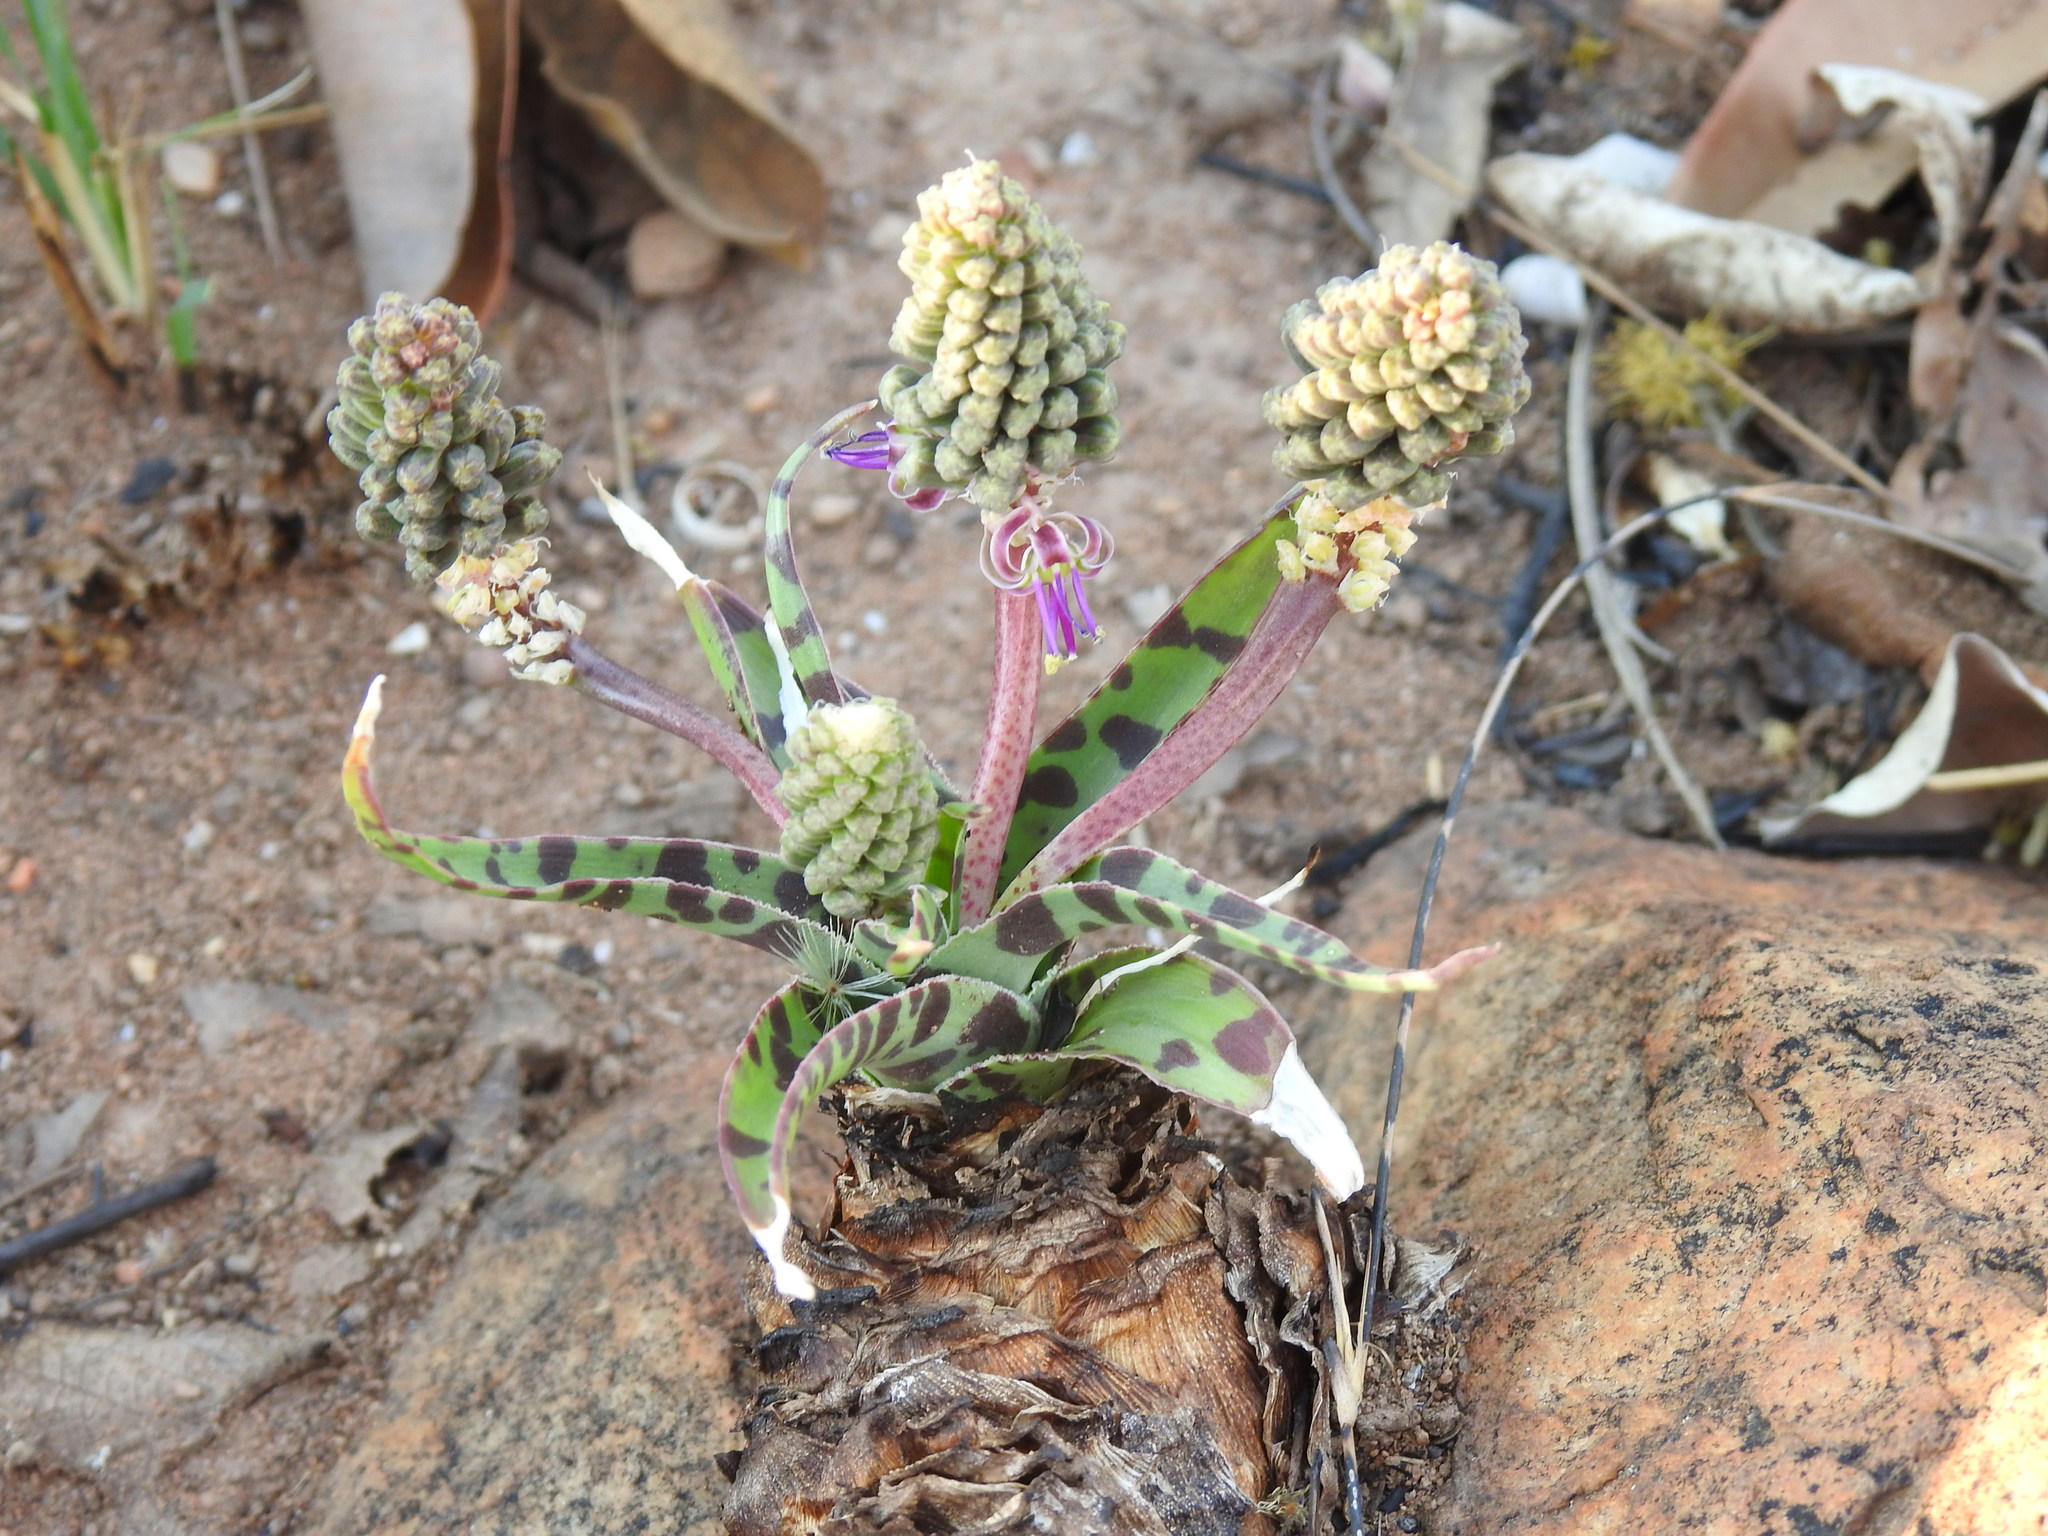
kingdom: Plantae
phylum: Tracheophyta
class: Liliopsida
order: Asparagales
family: Asparagaceae
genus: Ledebouria
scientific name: Ledebouria luteola
